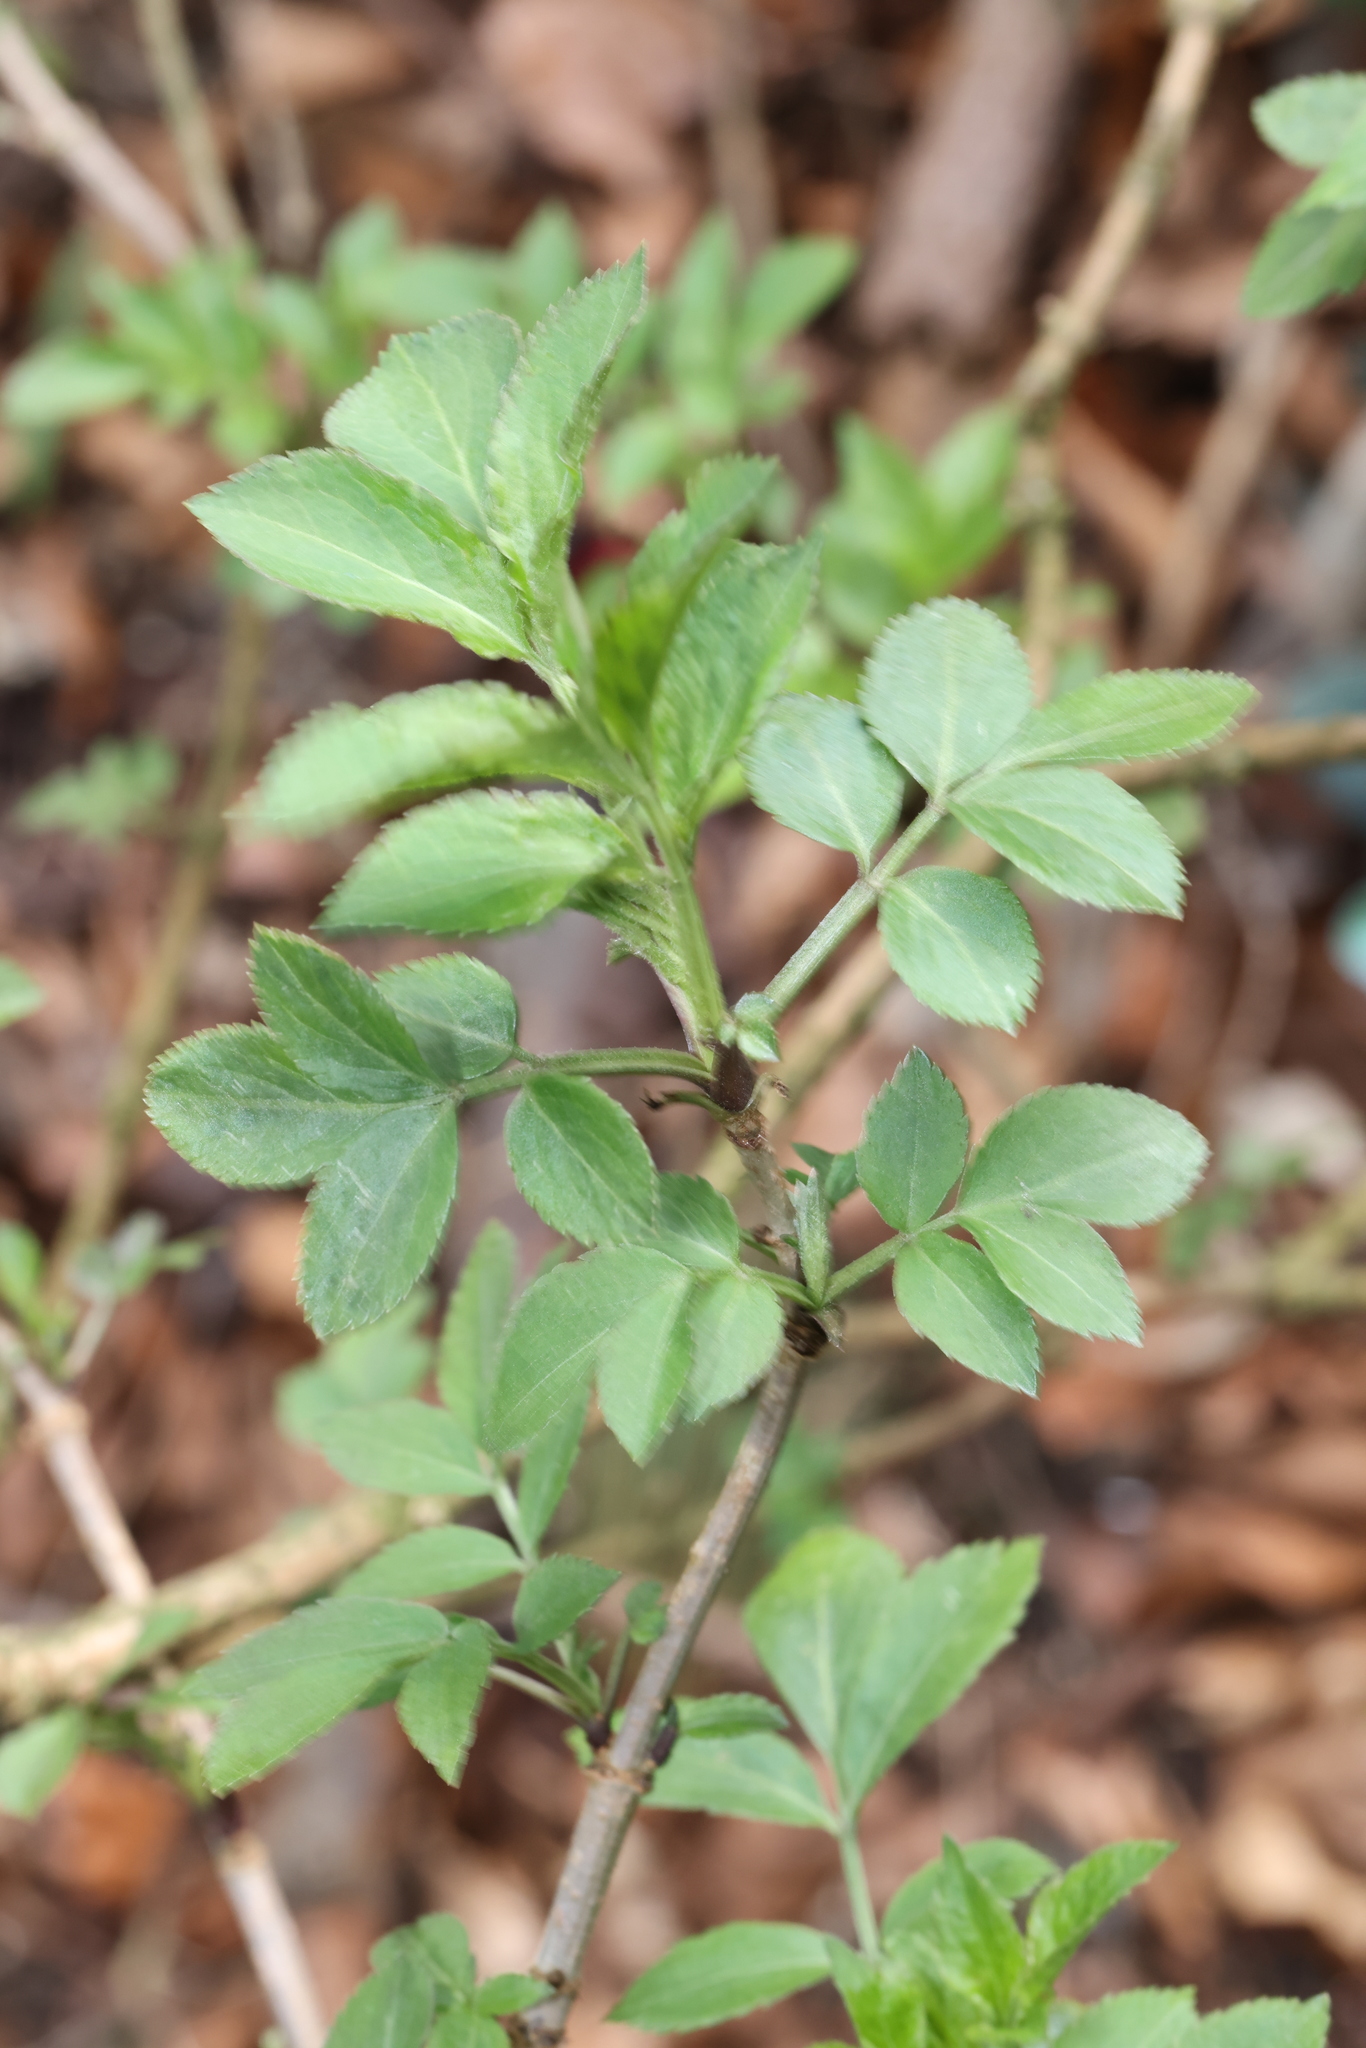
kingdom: Plantae
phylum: Tracheophyta
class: Magnoliopsida
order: Dipsacales
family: Viburnaceae
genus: Sambucus
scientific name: Sambucus nigra
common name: Elder
